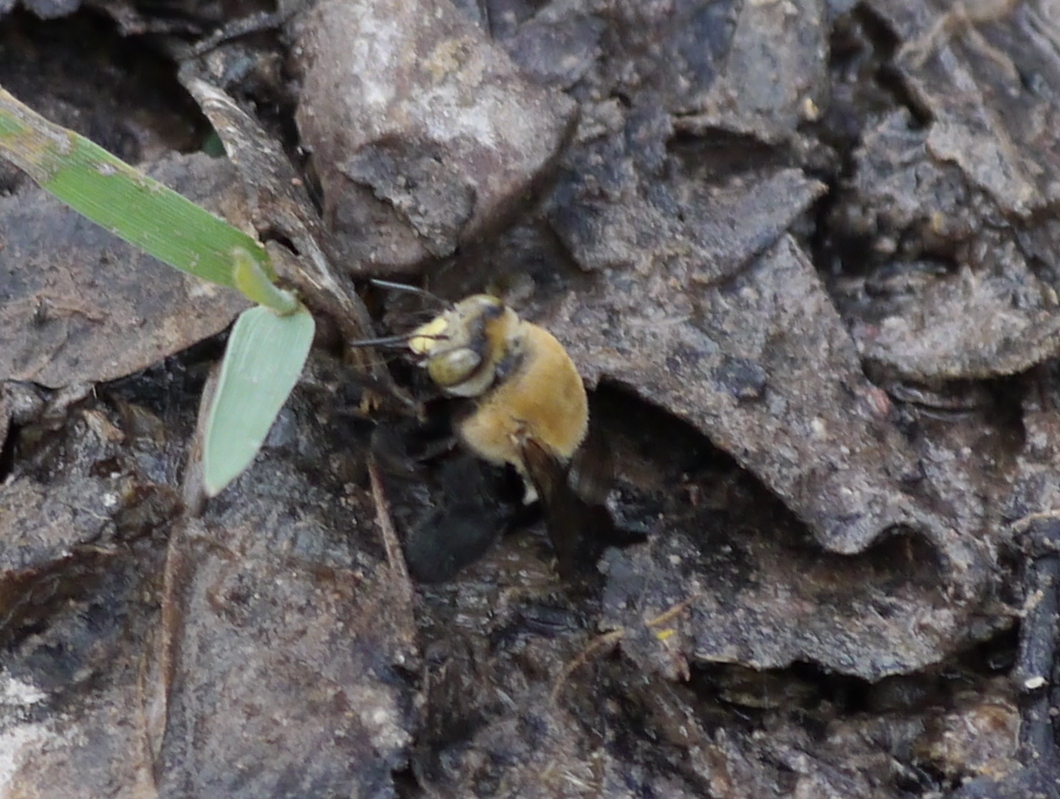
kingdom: Animalia
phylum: Arthropoda
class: Insecta
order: Hymenoptera
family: Apidae
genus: Centris
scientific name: Centris atripes
